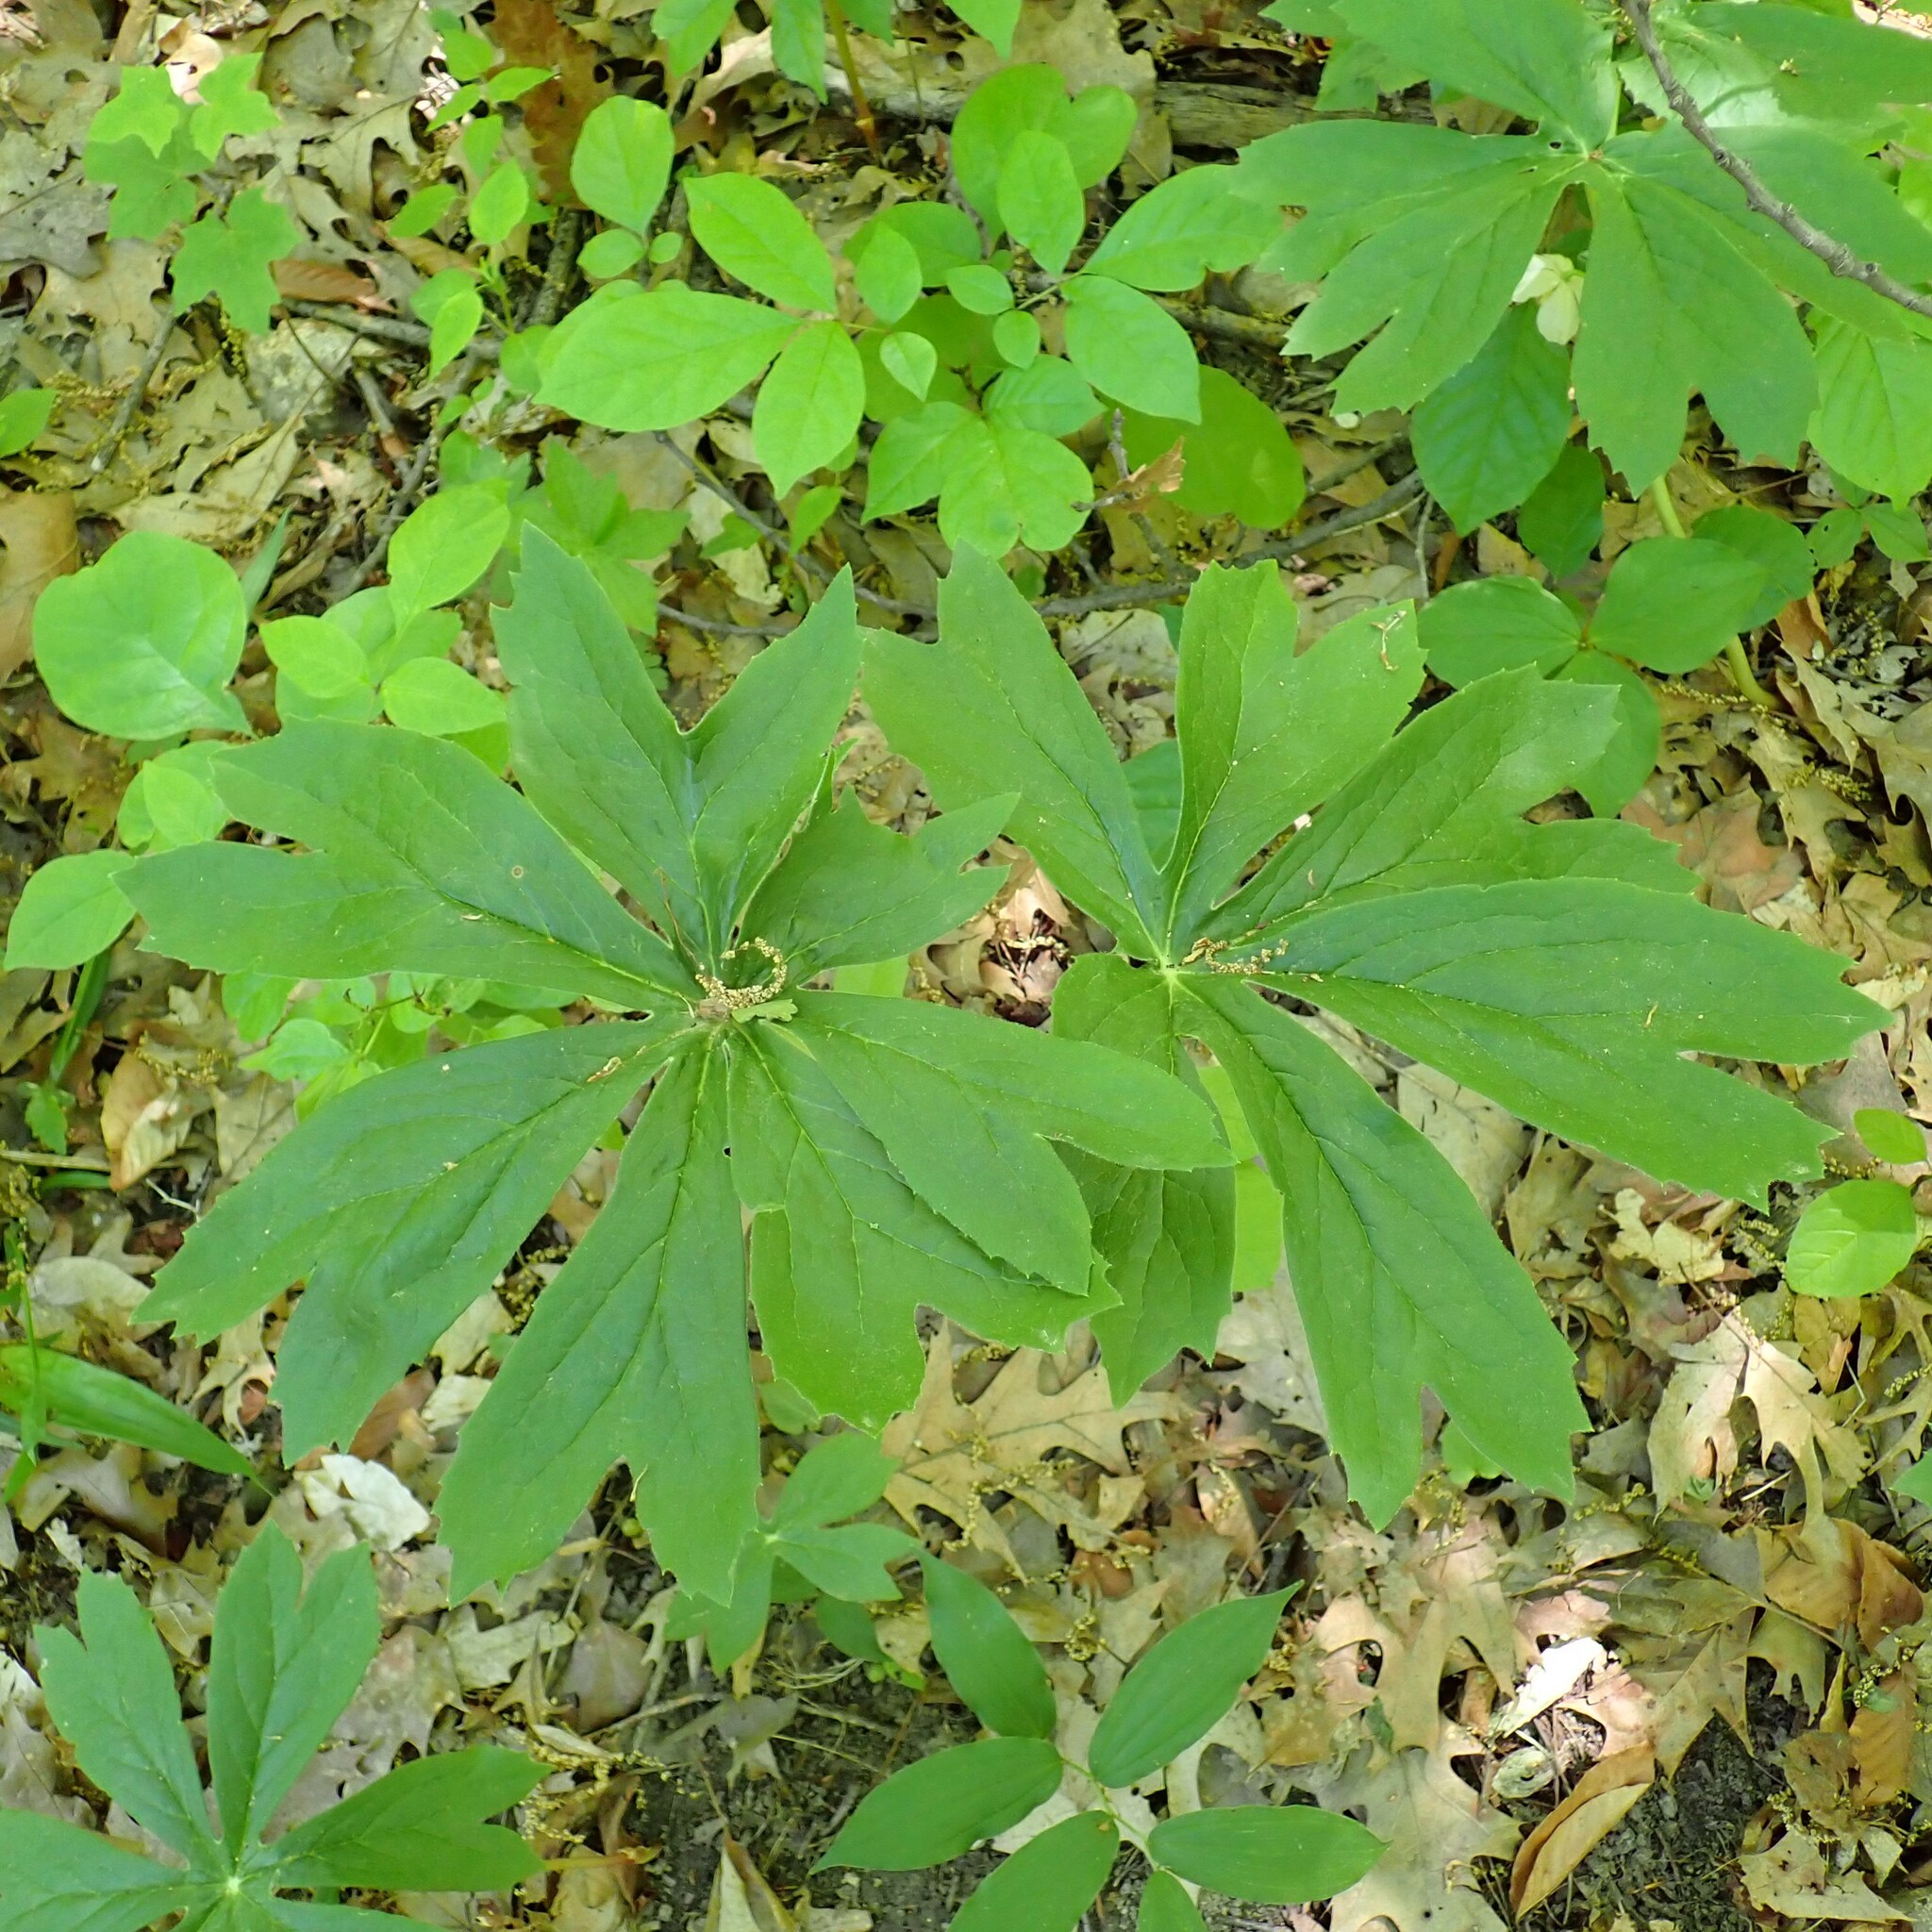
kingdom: Plantae
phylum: Tracheophyta
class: Magnoliopsida
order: Ranunculales
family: Berberidaceae
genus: Podophyllum
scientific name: Podophyllum peltatum
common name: Wild mandrake
